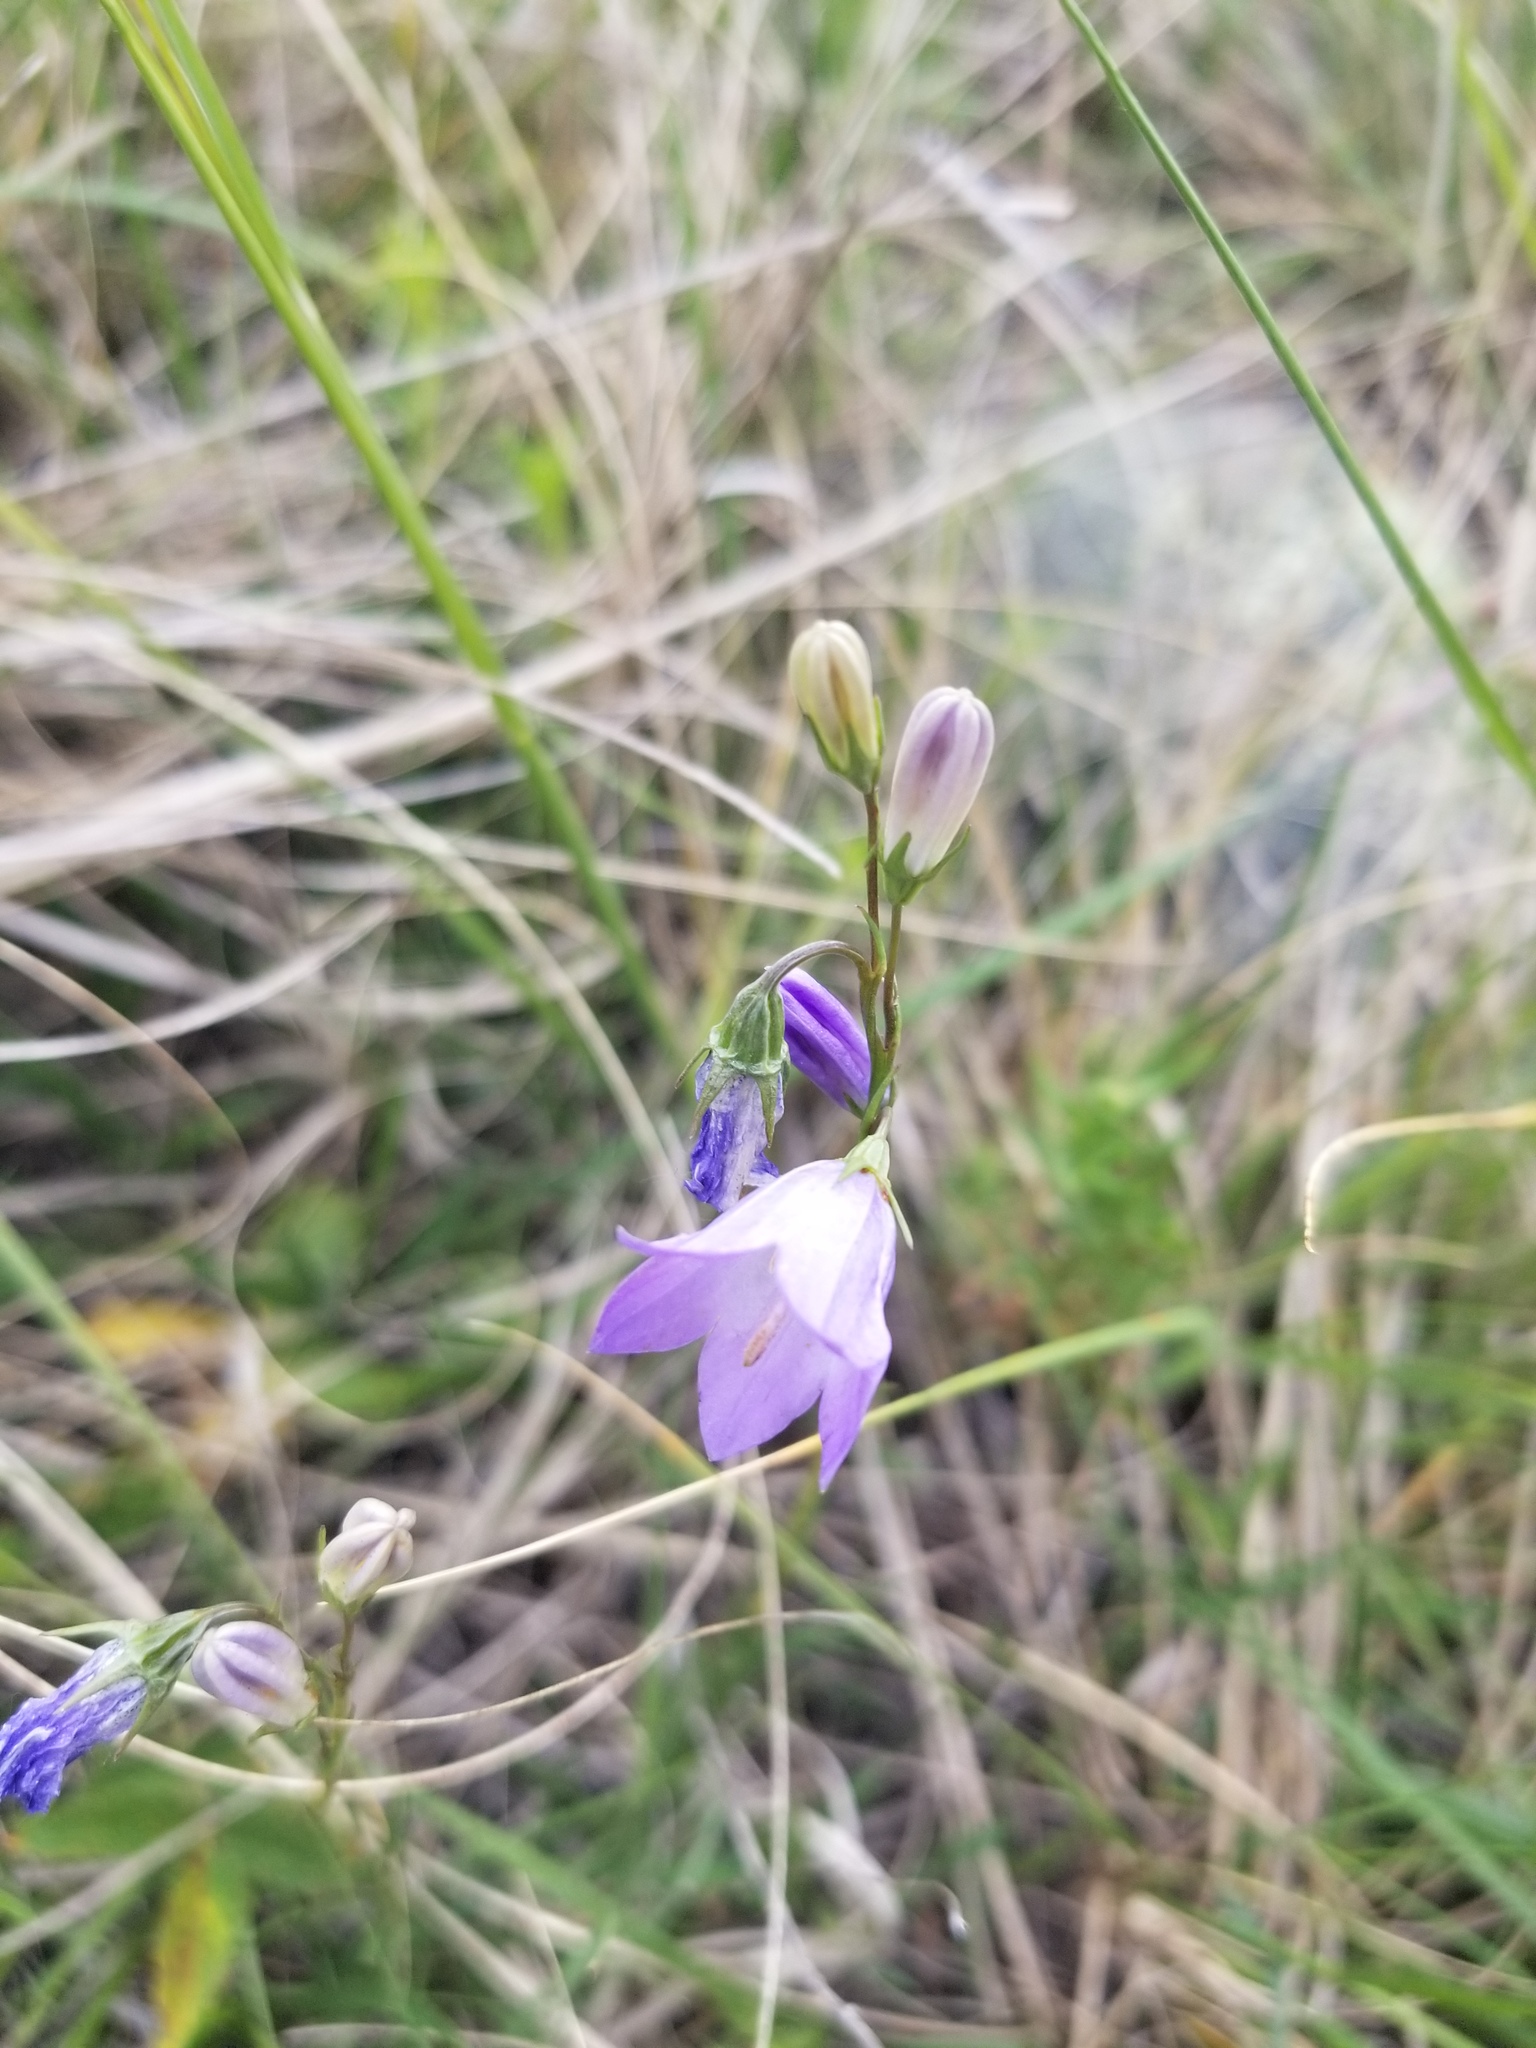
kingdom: Plantae
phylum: Tracheophyta
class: Magnoliopsida
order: Asterales
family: Campanulaceae
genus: Campanula
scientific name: Campanula petiolata
